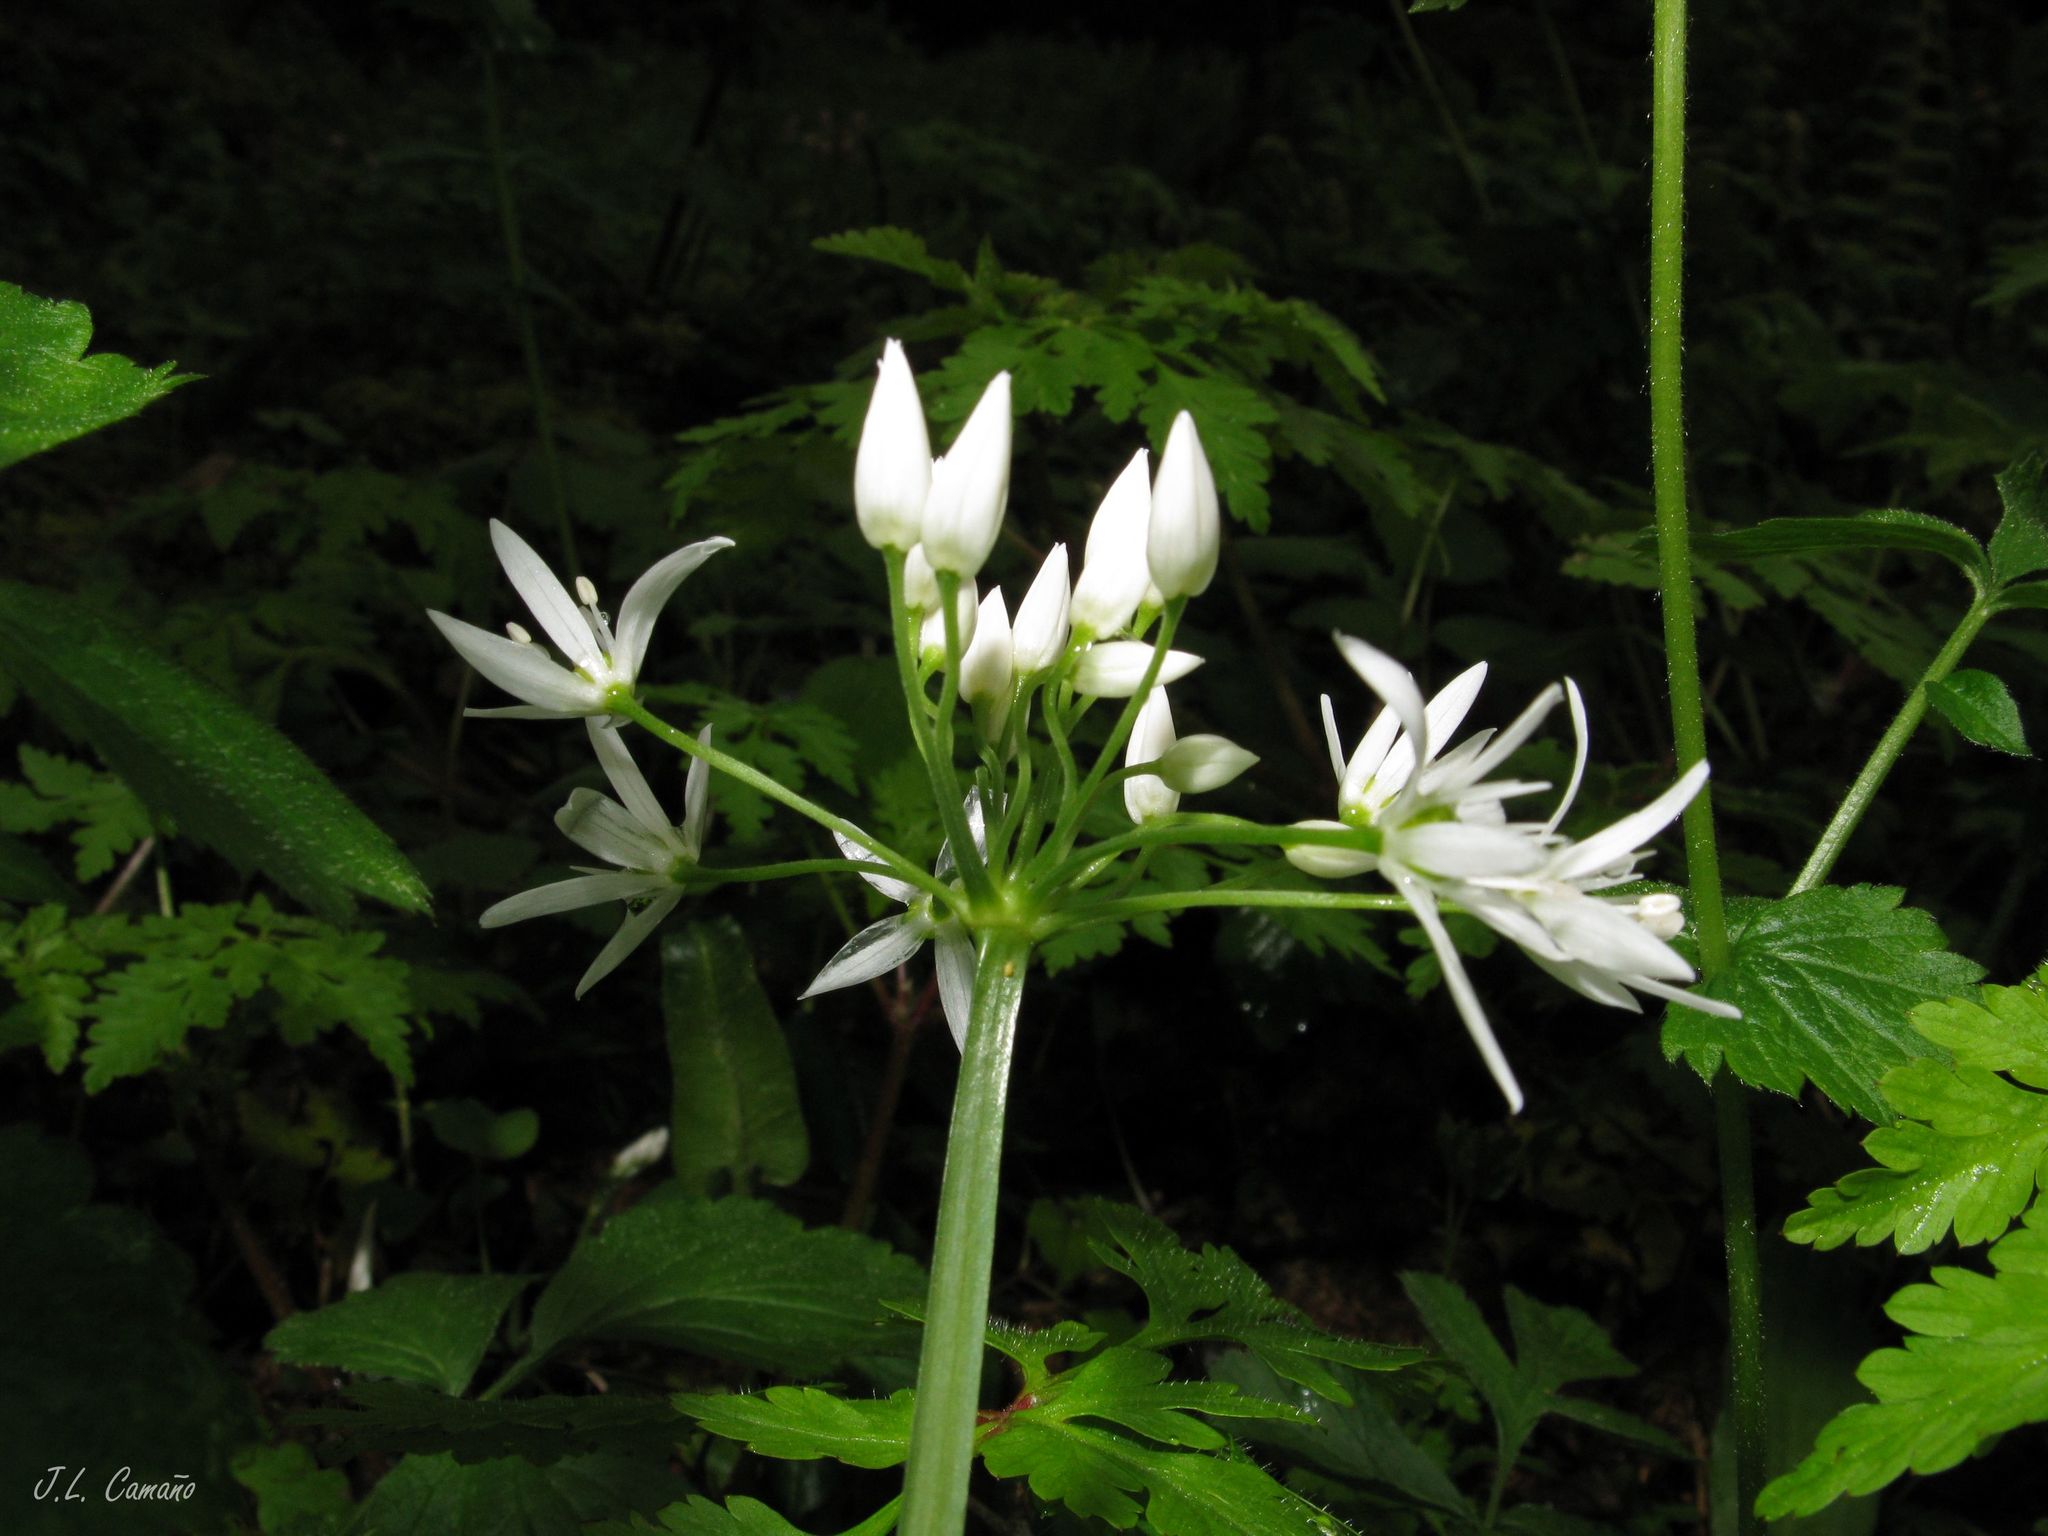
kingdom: Plantae
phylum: Tracheophyta
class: Liliopsida
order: Asparagales
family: Amaryllidaceae
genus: Allium
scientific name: Allium ursinum
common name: Ramsons
